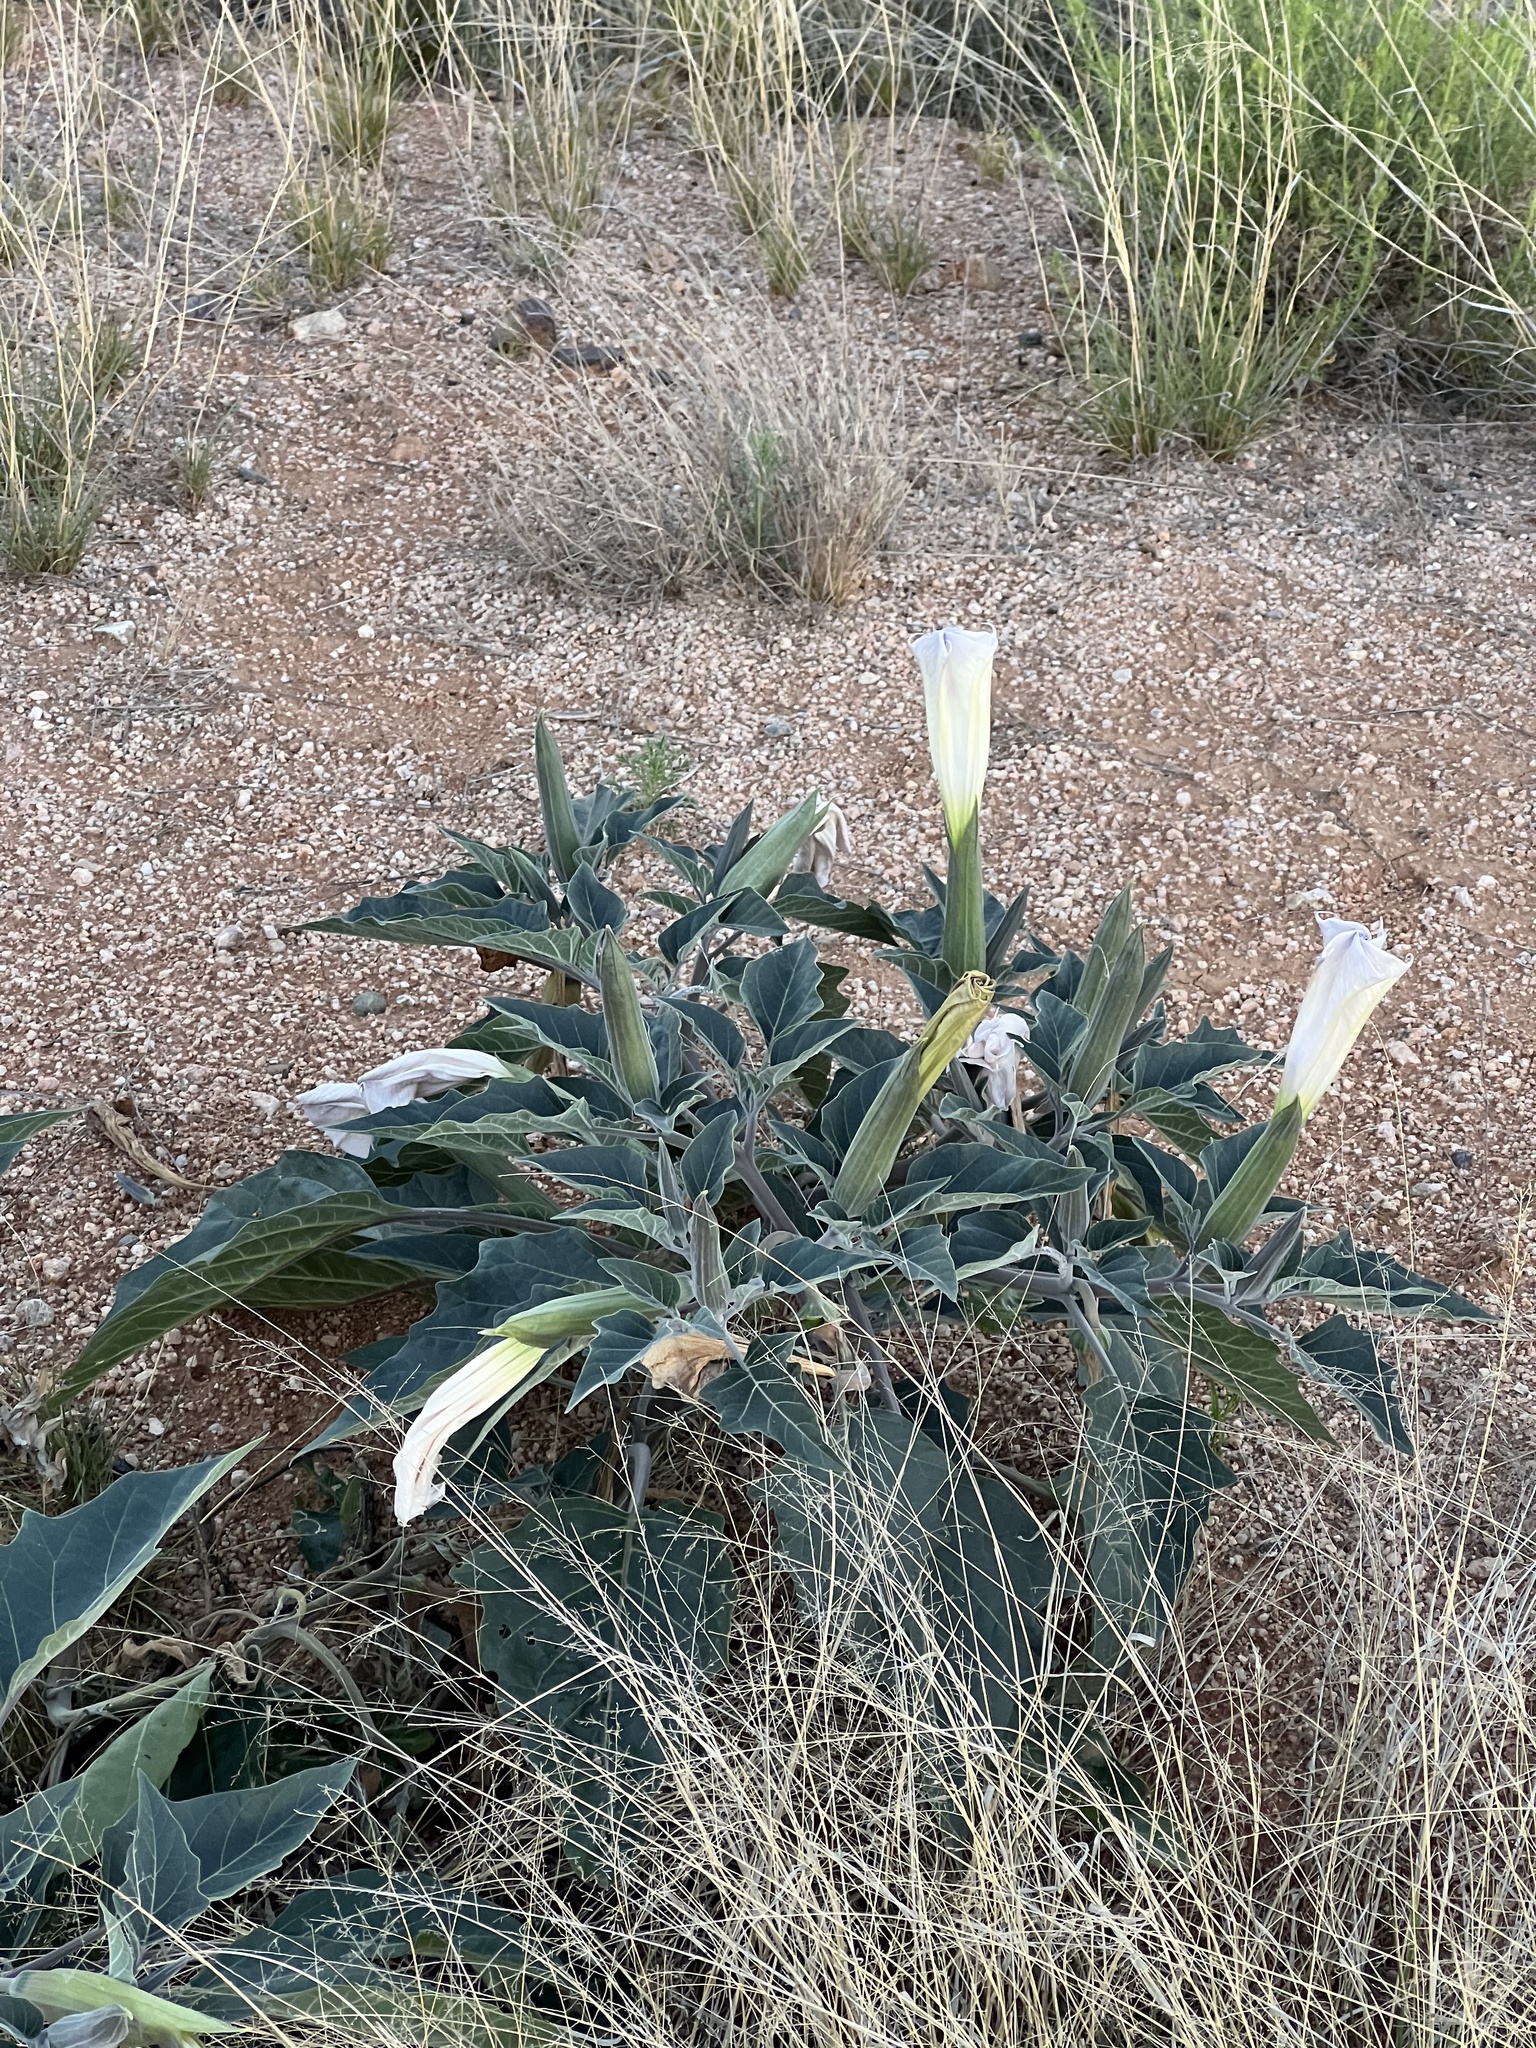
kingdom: Plantae
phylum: Tracheophyta
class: Magnoliopsida
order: Solanales
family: Solanaceae
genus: Datura
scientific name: Datura wrightii
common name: Sacred thorn-apple
